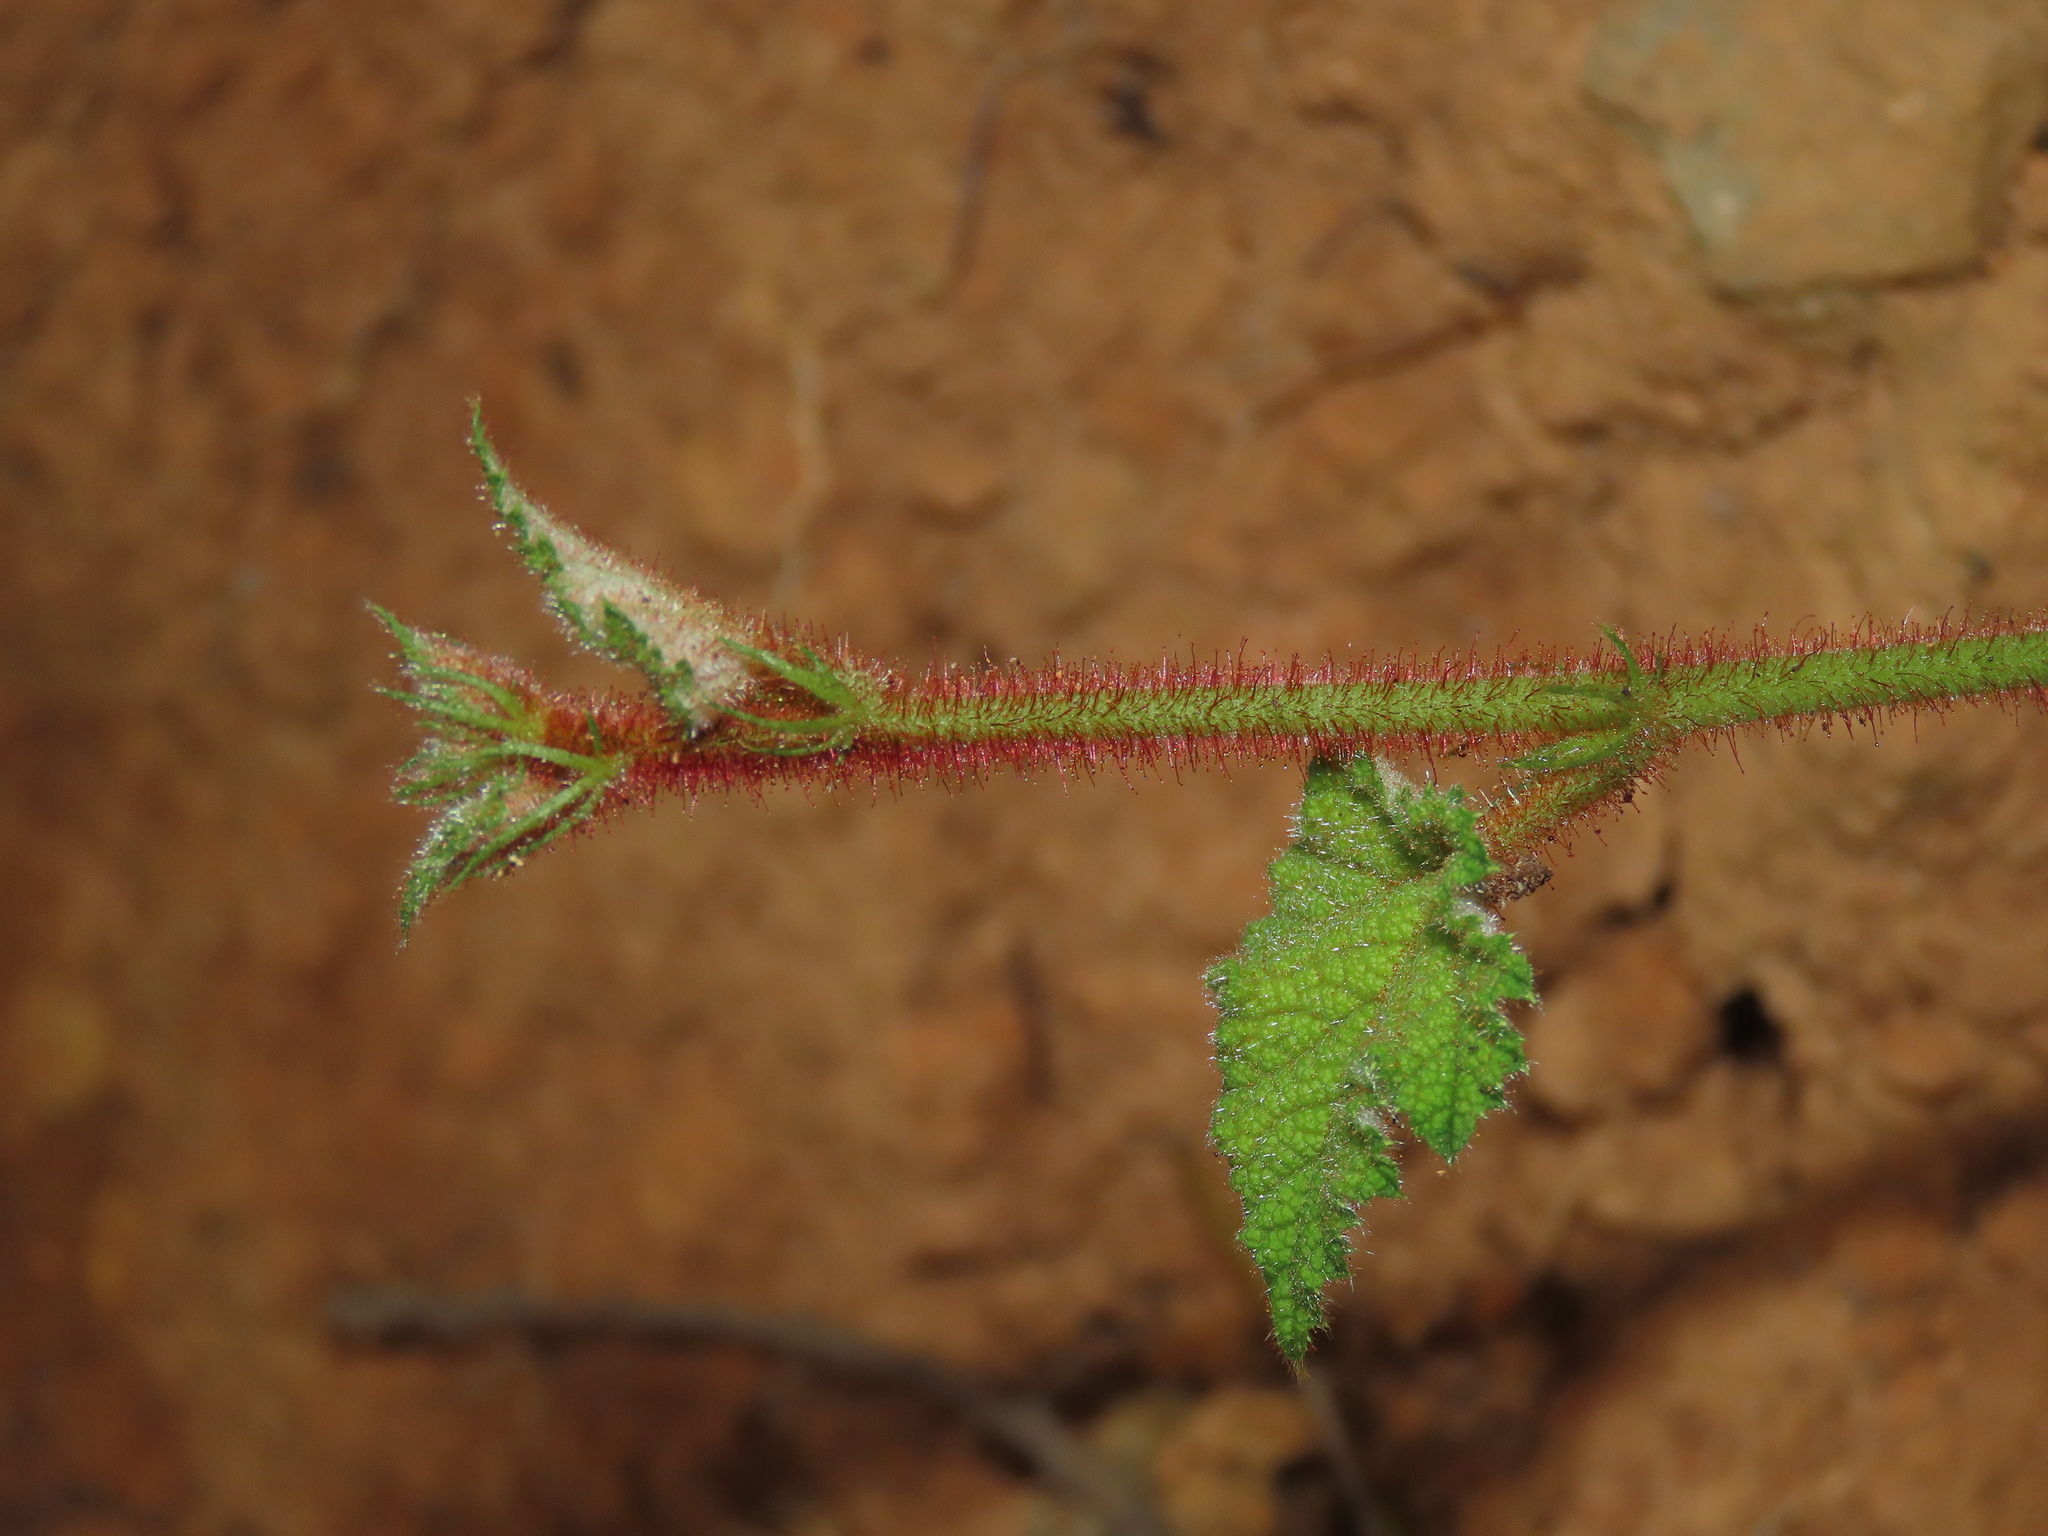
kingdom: Plantae
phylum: Tracheophyta
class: Magnoliopsida
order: Rosales
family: Rosaceae
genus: Rubus
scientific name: Rubus amphidasys
